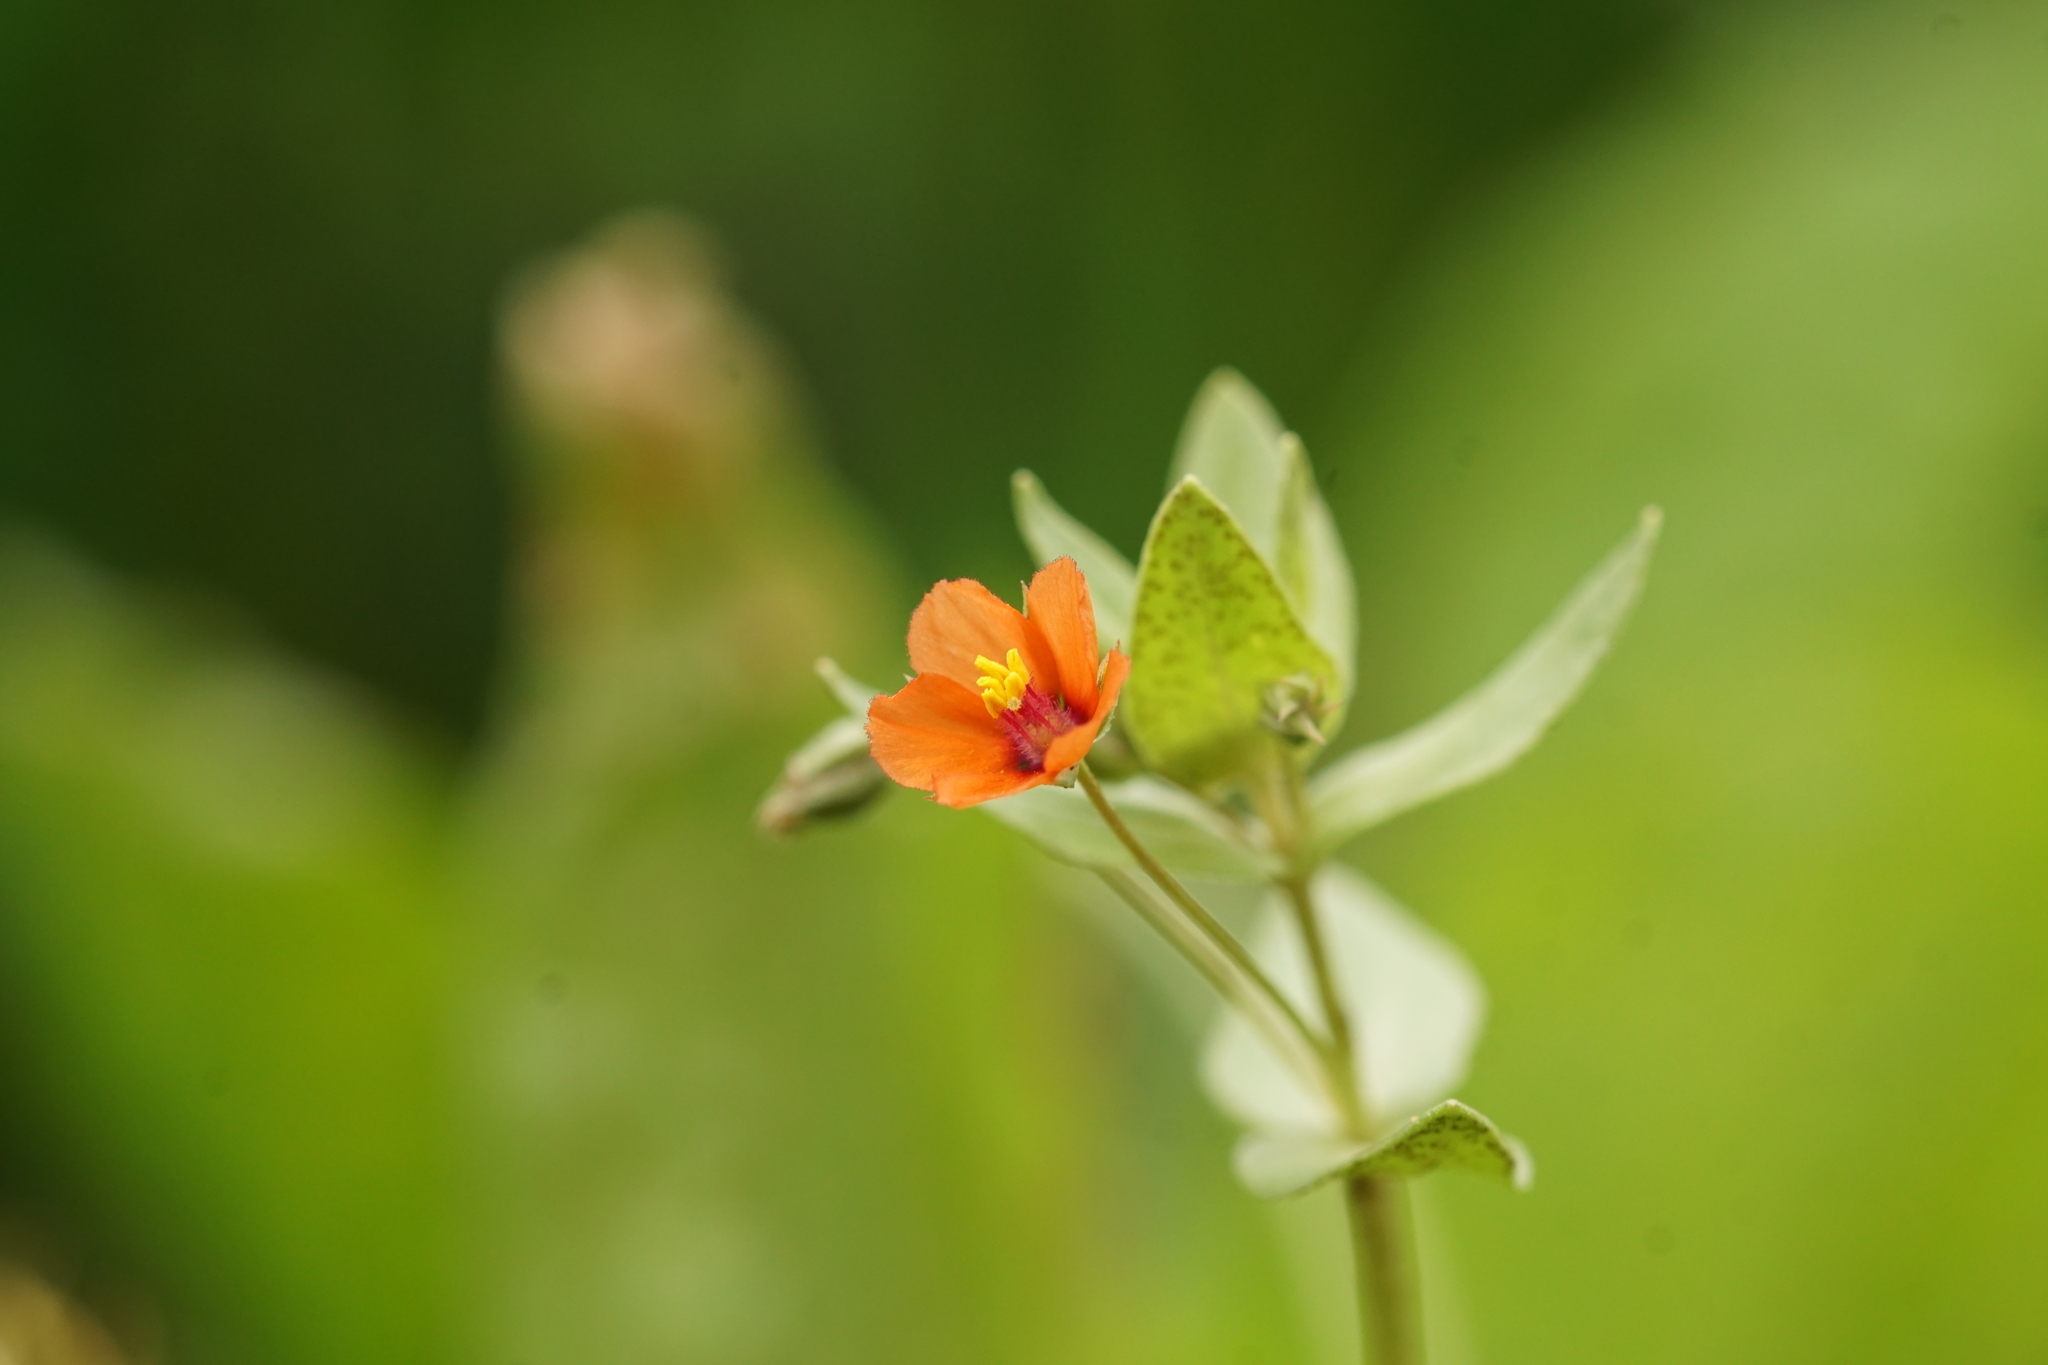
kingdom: Plantae
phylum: Tracheophyta
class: Magnoliopsida
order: Ericales
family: Primulaceae
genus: Lysimachia
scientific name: Lysimachia arvensis
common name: Scarlet pimpernel
